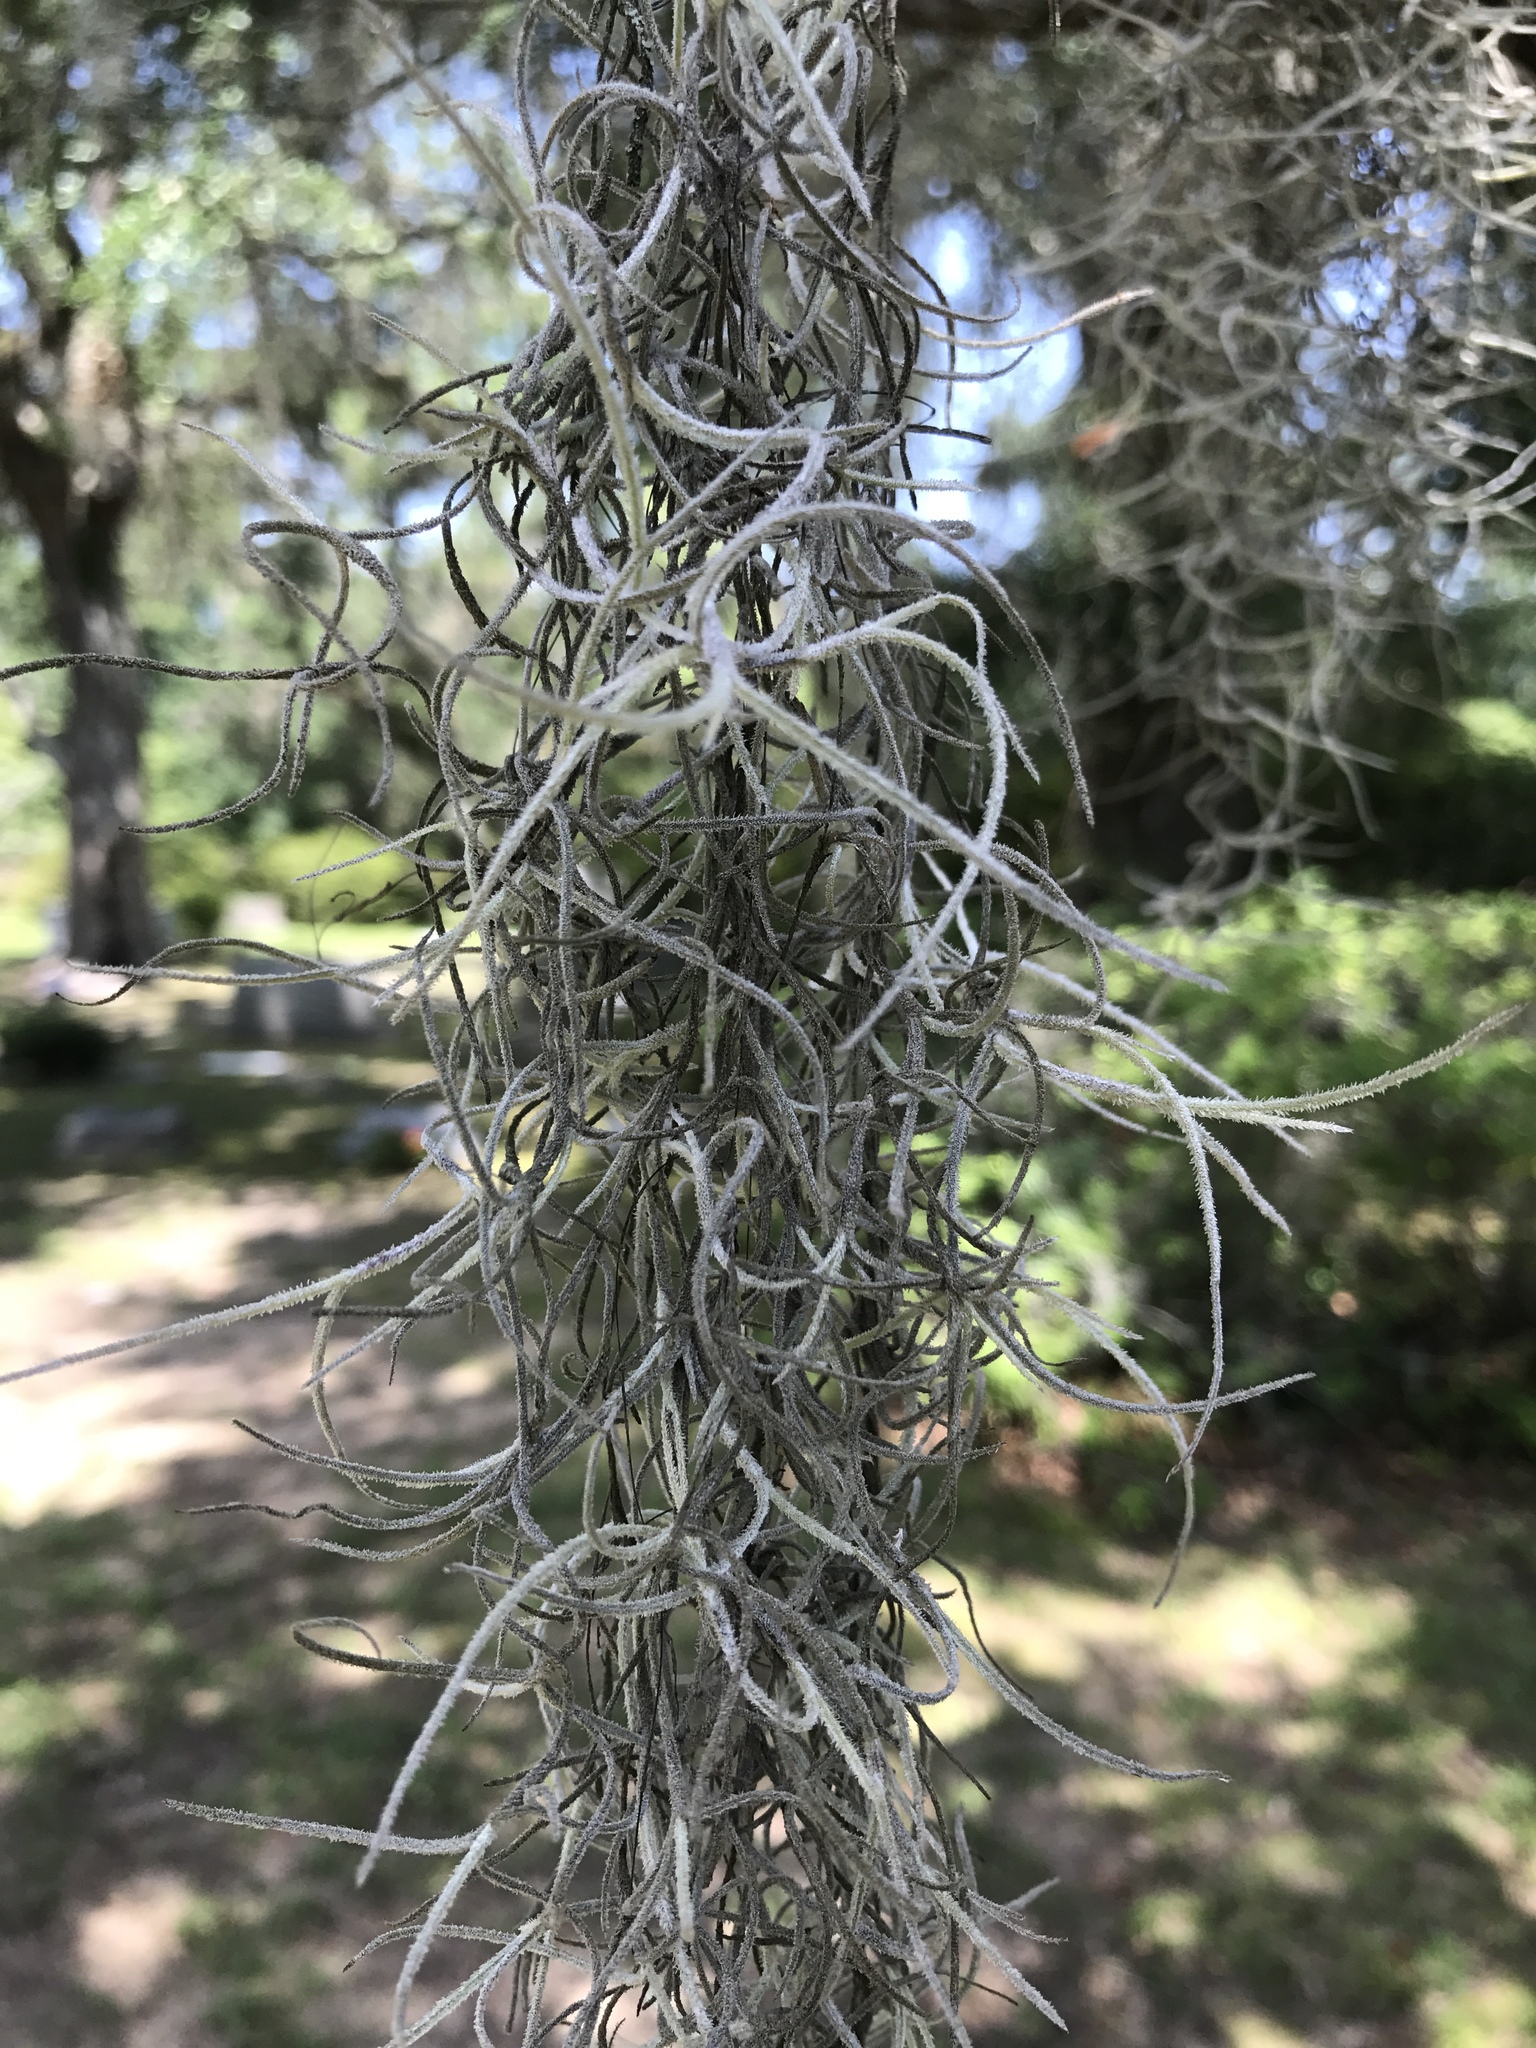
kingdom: Plantae
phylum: Tracheophyta
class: Liliopsida
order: Poales
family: Bromeliaceae
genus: Tillandsia
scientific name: Tillandsia usneoides
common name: Spanish moss
